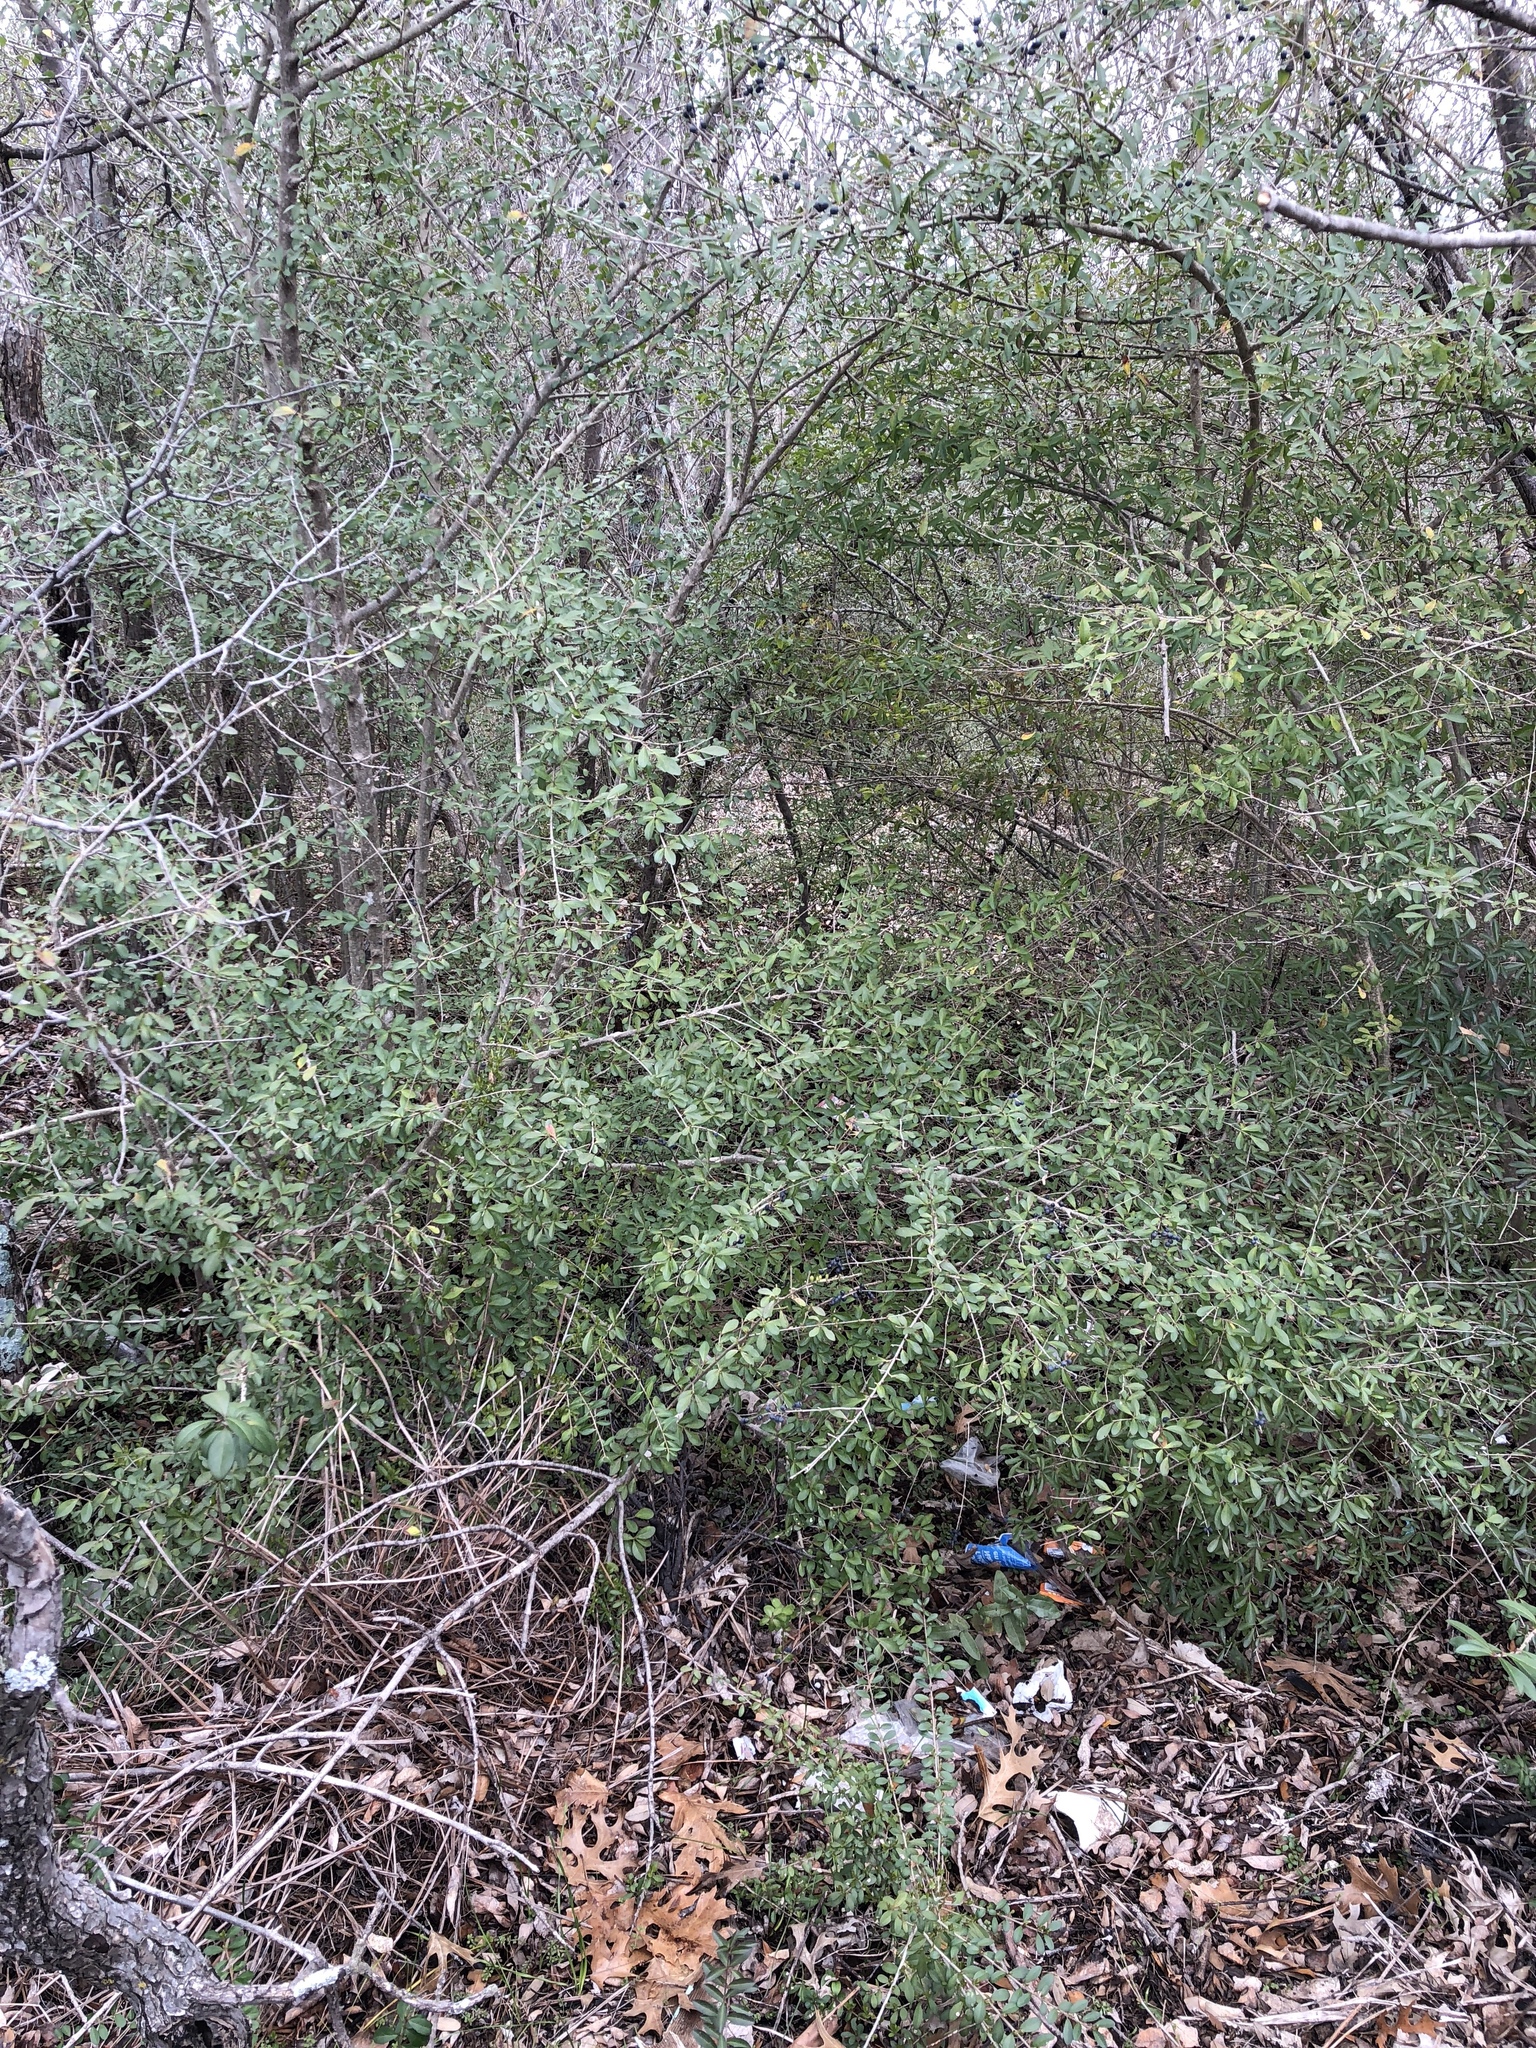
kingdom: Plantae
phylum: Tracheophyta
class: Magnoliopsida
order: Lamiales
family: Oleaceae
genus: Ligustrum
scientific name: Ligustrum quihoui
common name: Waxyleaf privet
